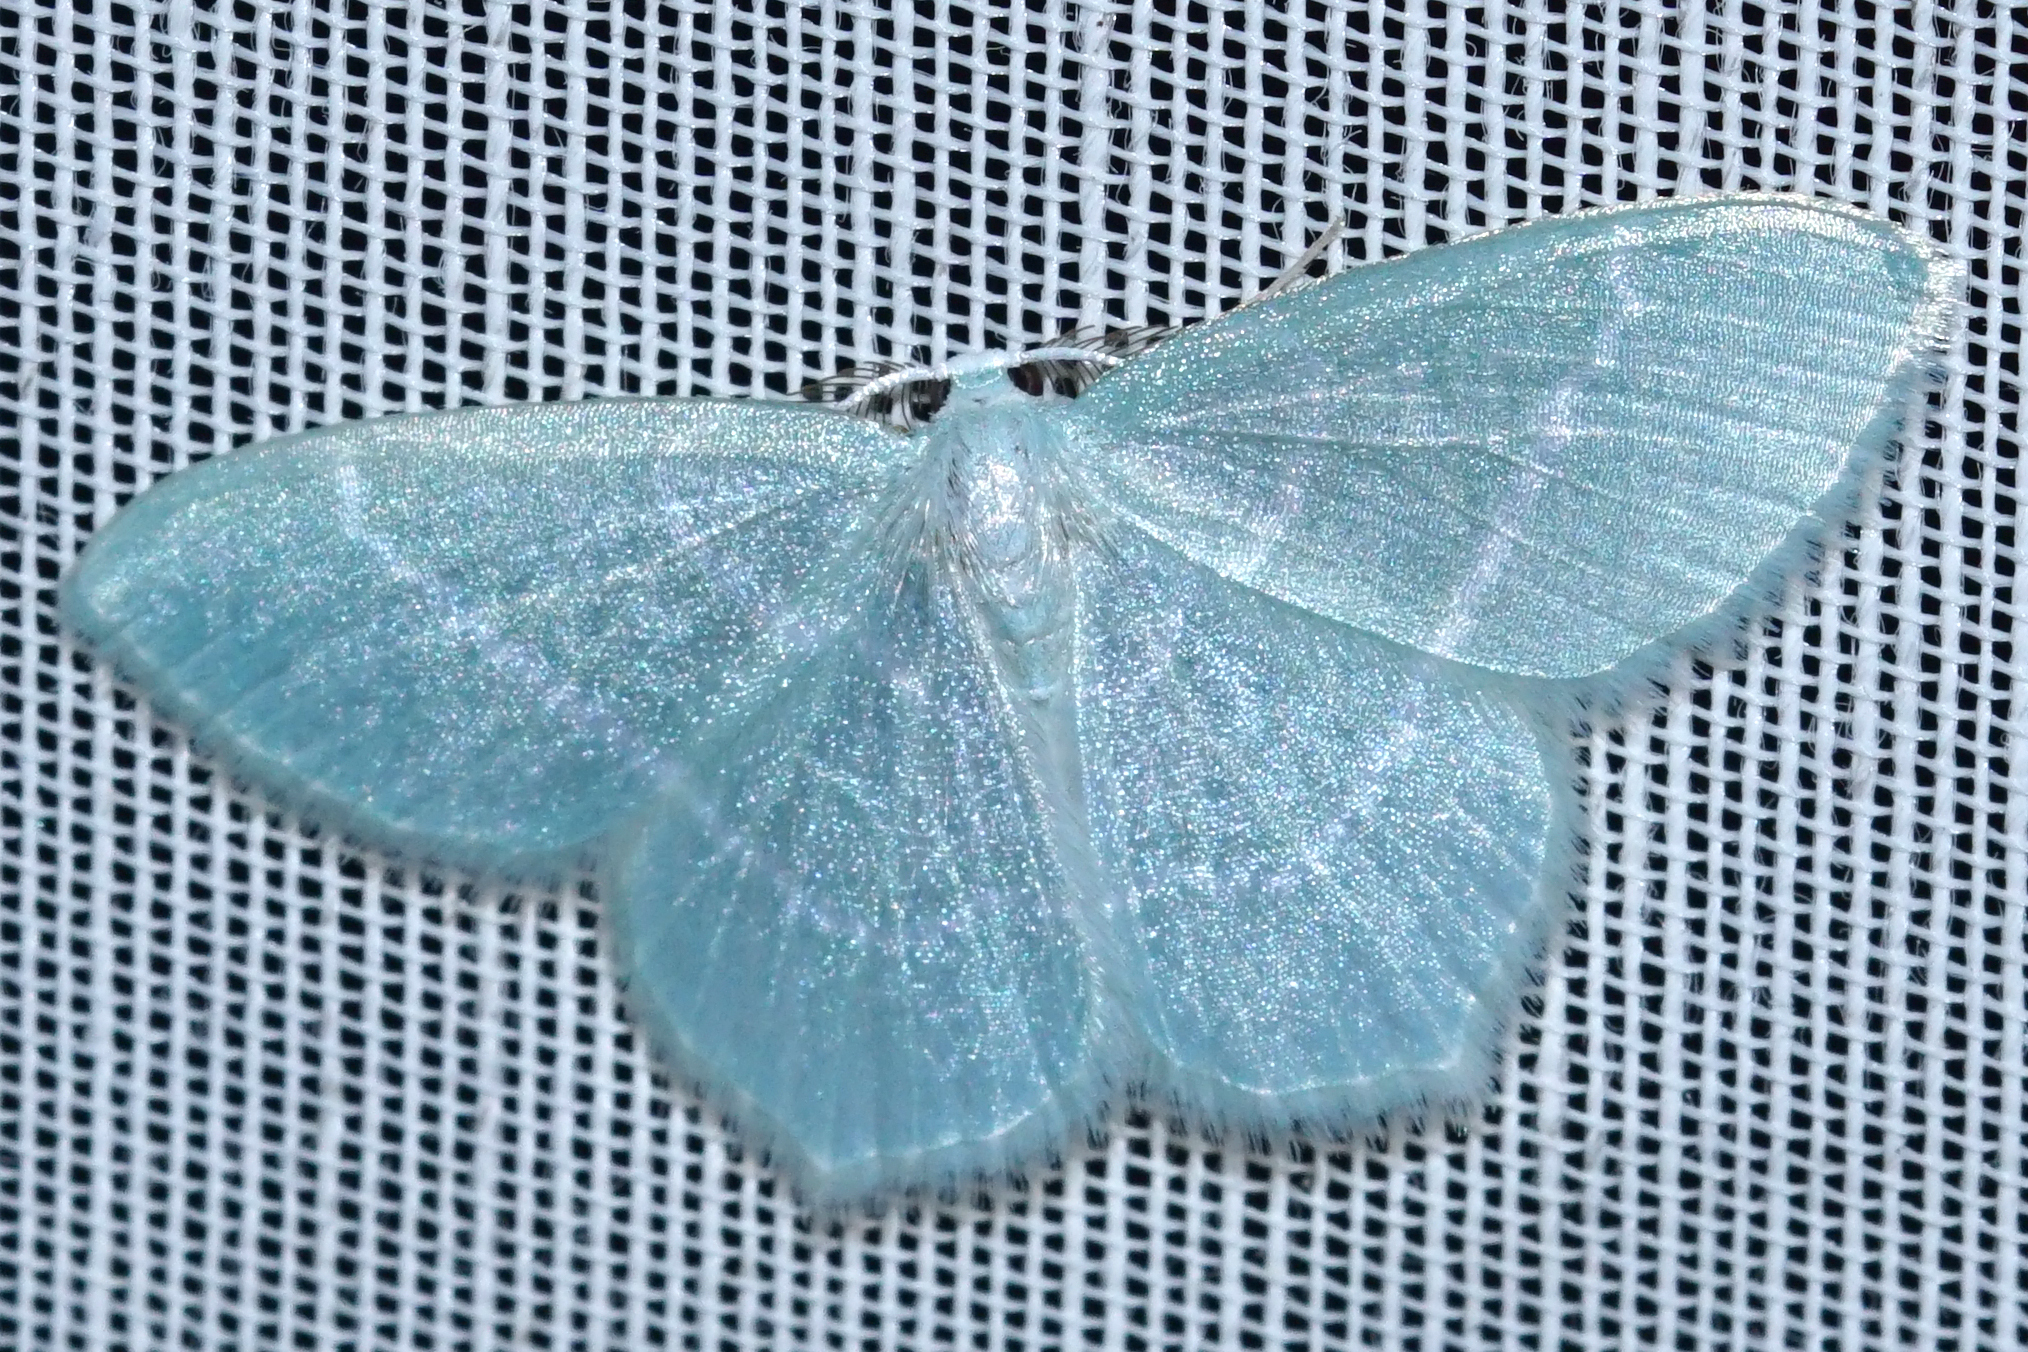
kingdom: Animalia
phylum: Arthropoda
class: Insecta
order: Lepidoptera
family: Geometridae
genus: Jodis
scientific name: Jodis lactearia
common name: Little emerald
